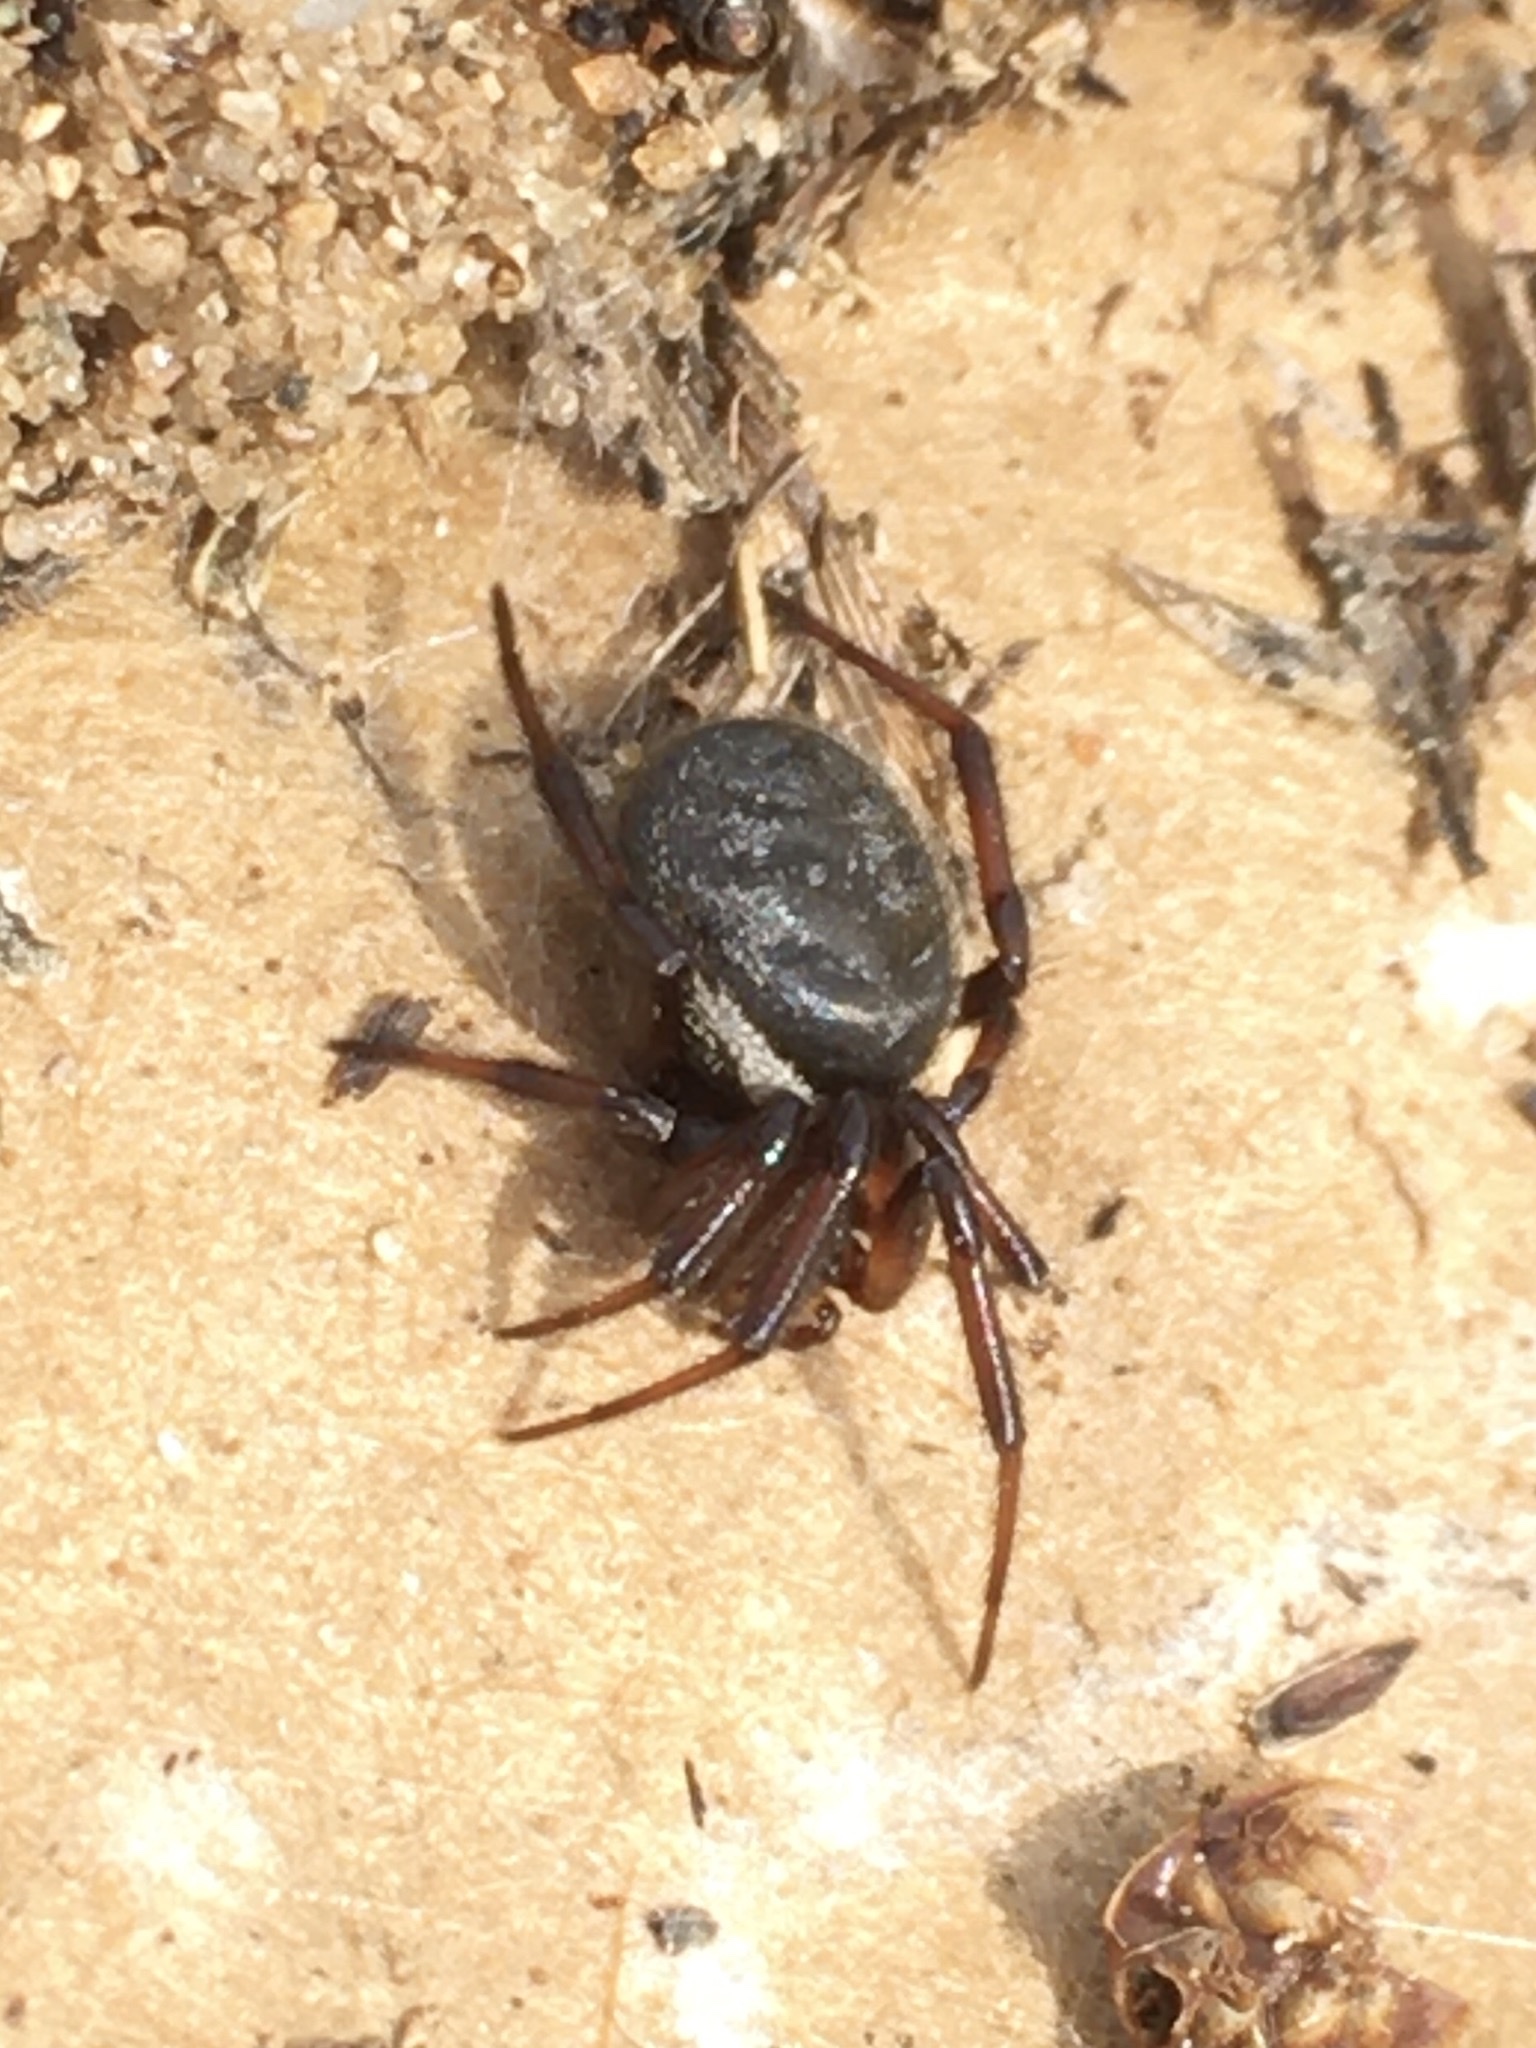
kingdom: Animalia
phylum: Arthropoda
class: Arachnida
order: Araneae
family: Theridiidae
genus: Steatoda
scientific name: Steatoda albomaculata
